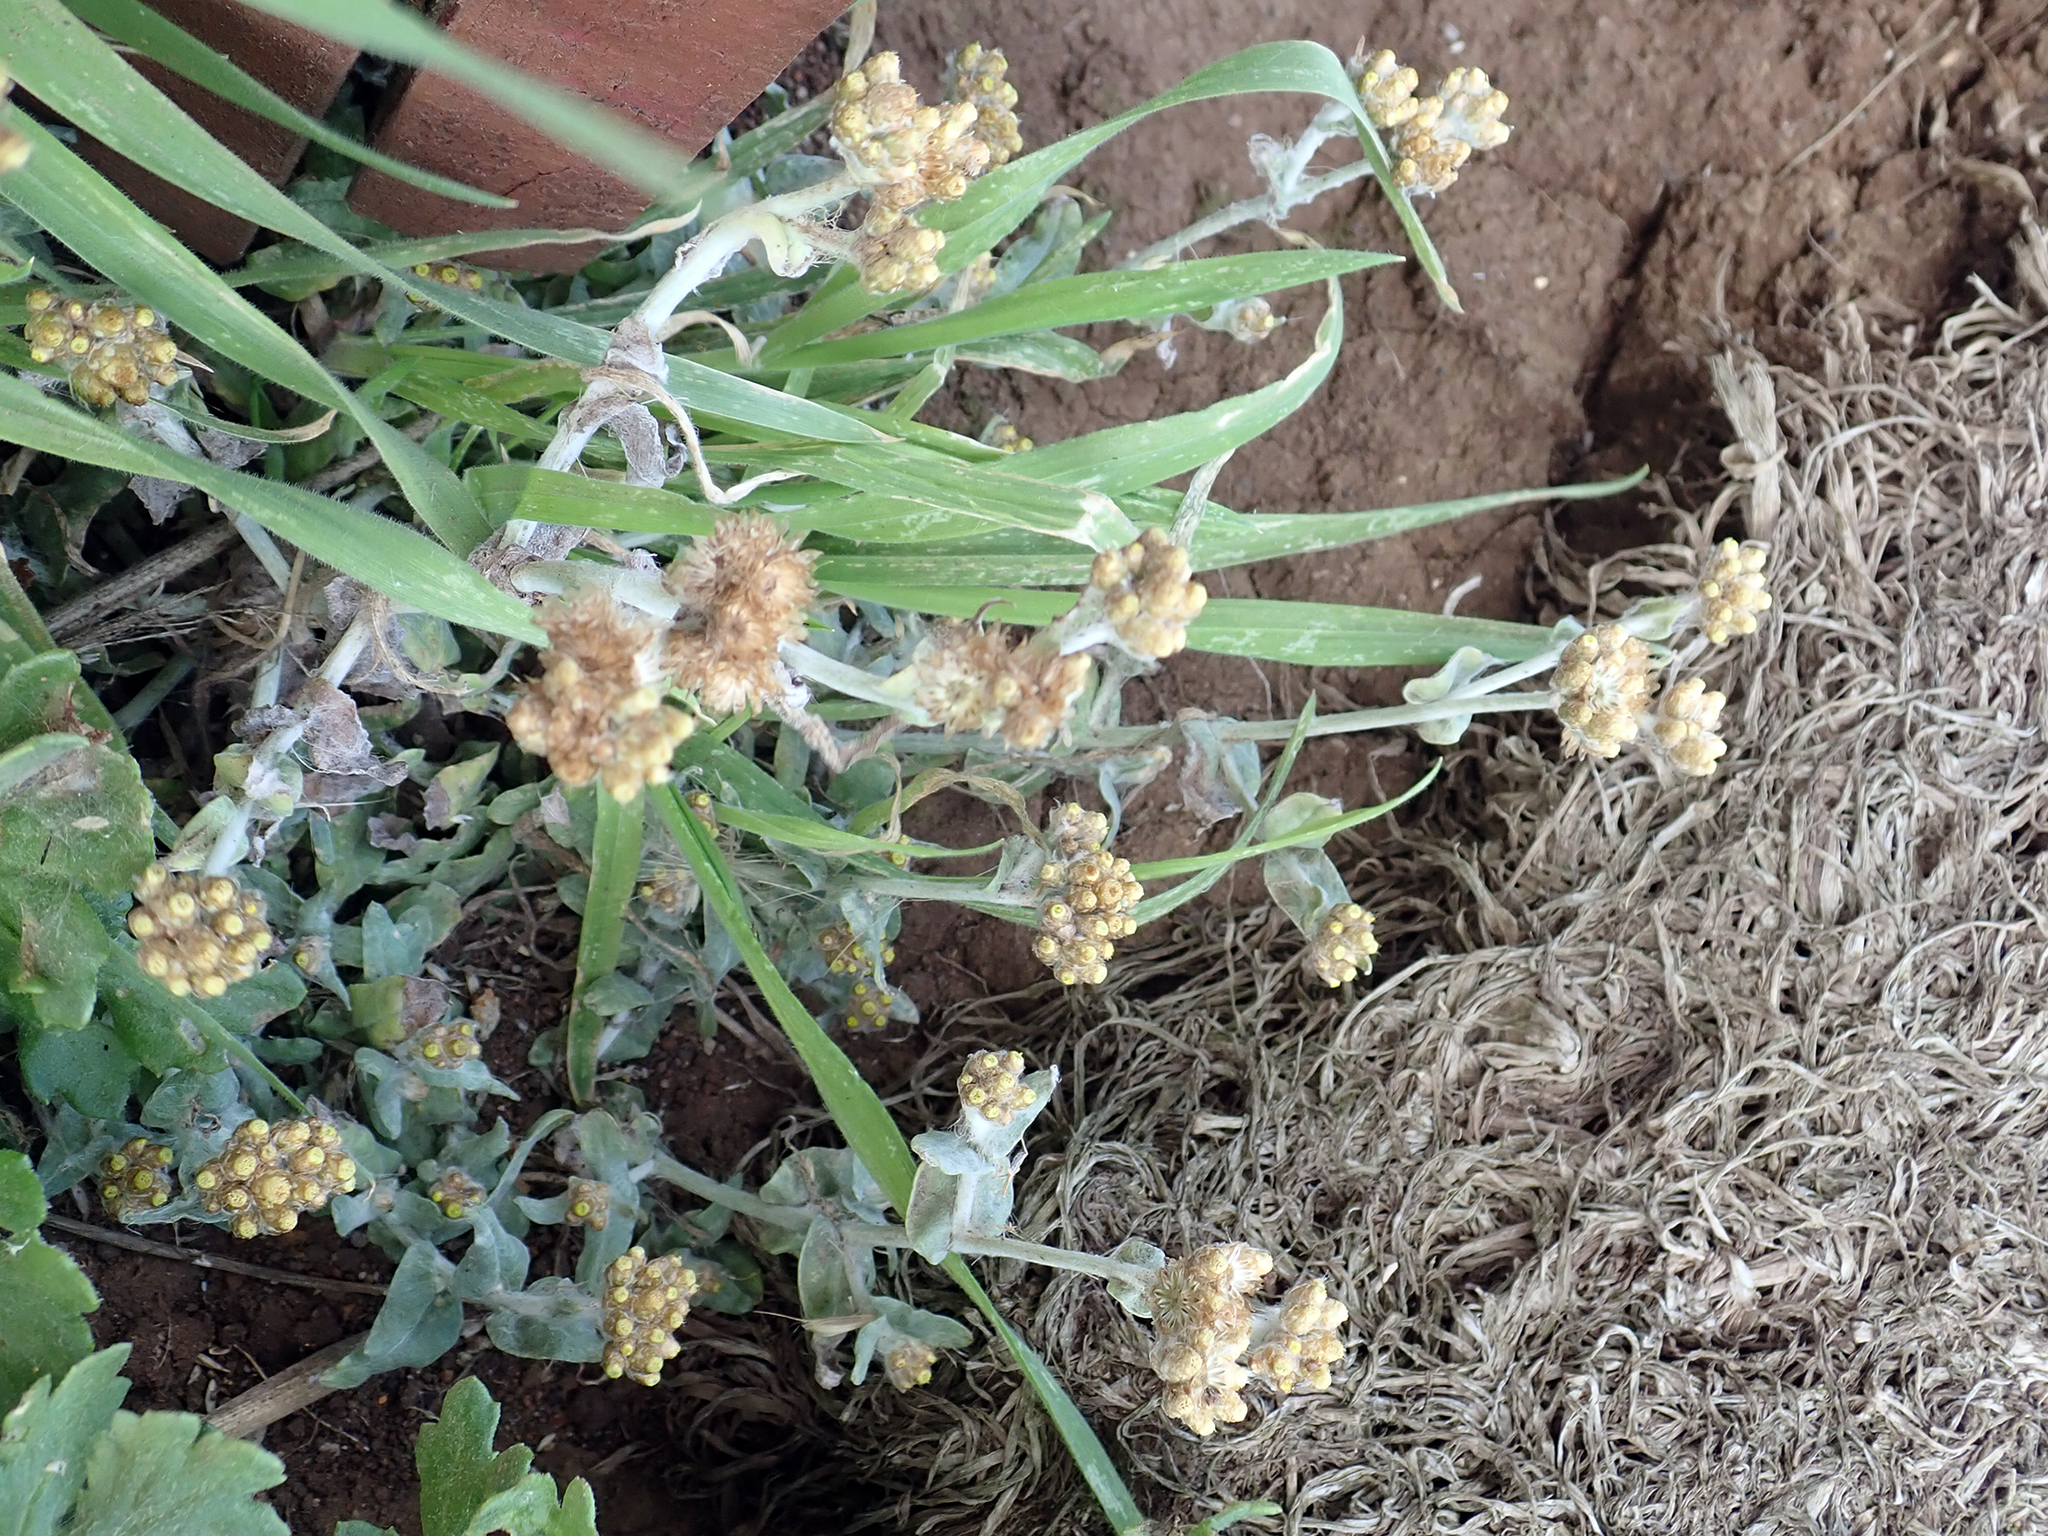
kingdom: Plantae
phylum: Tracheophyta
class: Magnoliopsida
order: Asterales
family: Asteraceae
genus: Pseudognaphalium
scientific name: Pseudognaphalium
